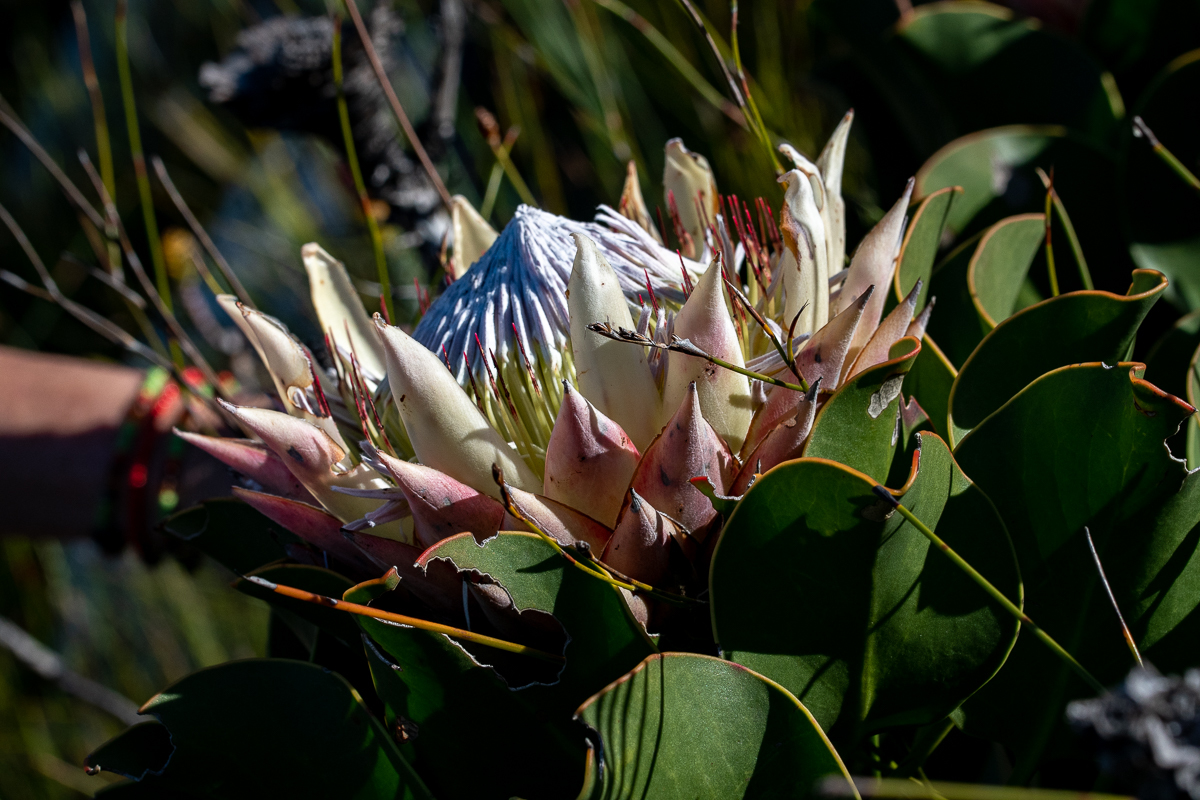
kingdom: Plantae
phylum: Tracheophyta
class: Magnoliopsida
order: Proteales
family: Proteaceae
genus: Protea
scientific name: Protea cynaroides
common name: King protea
